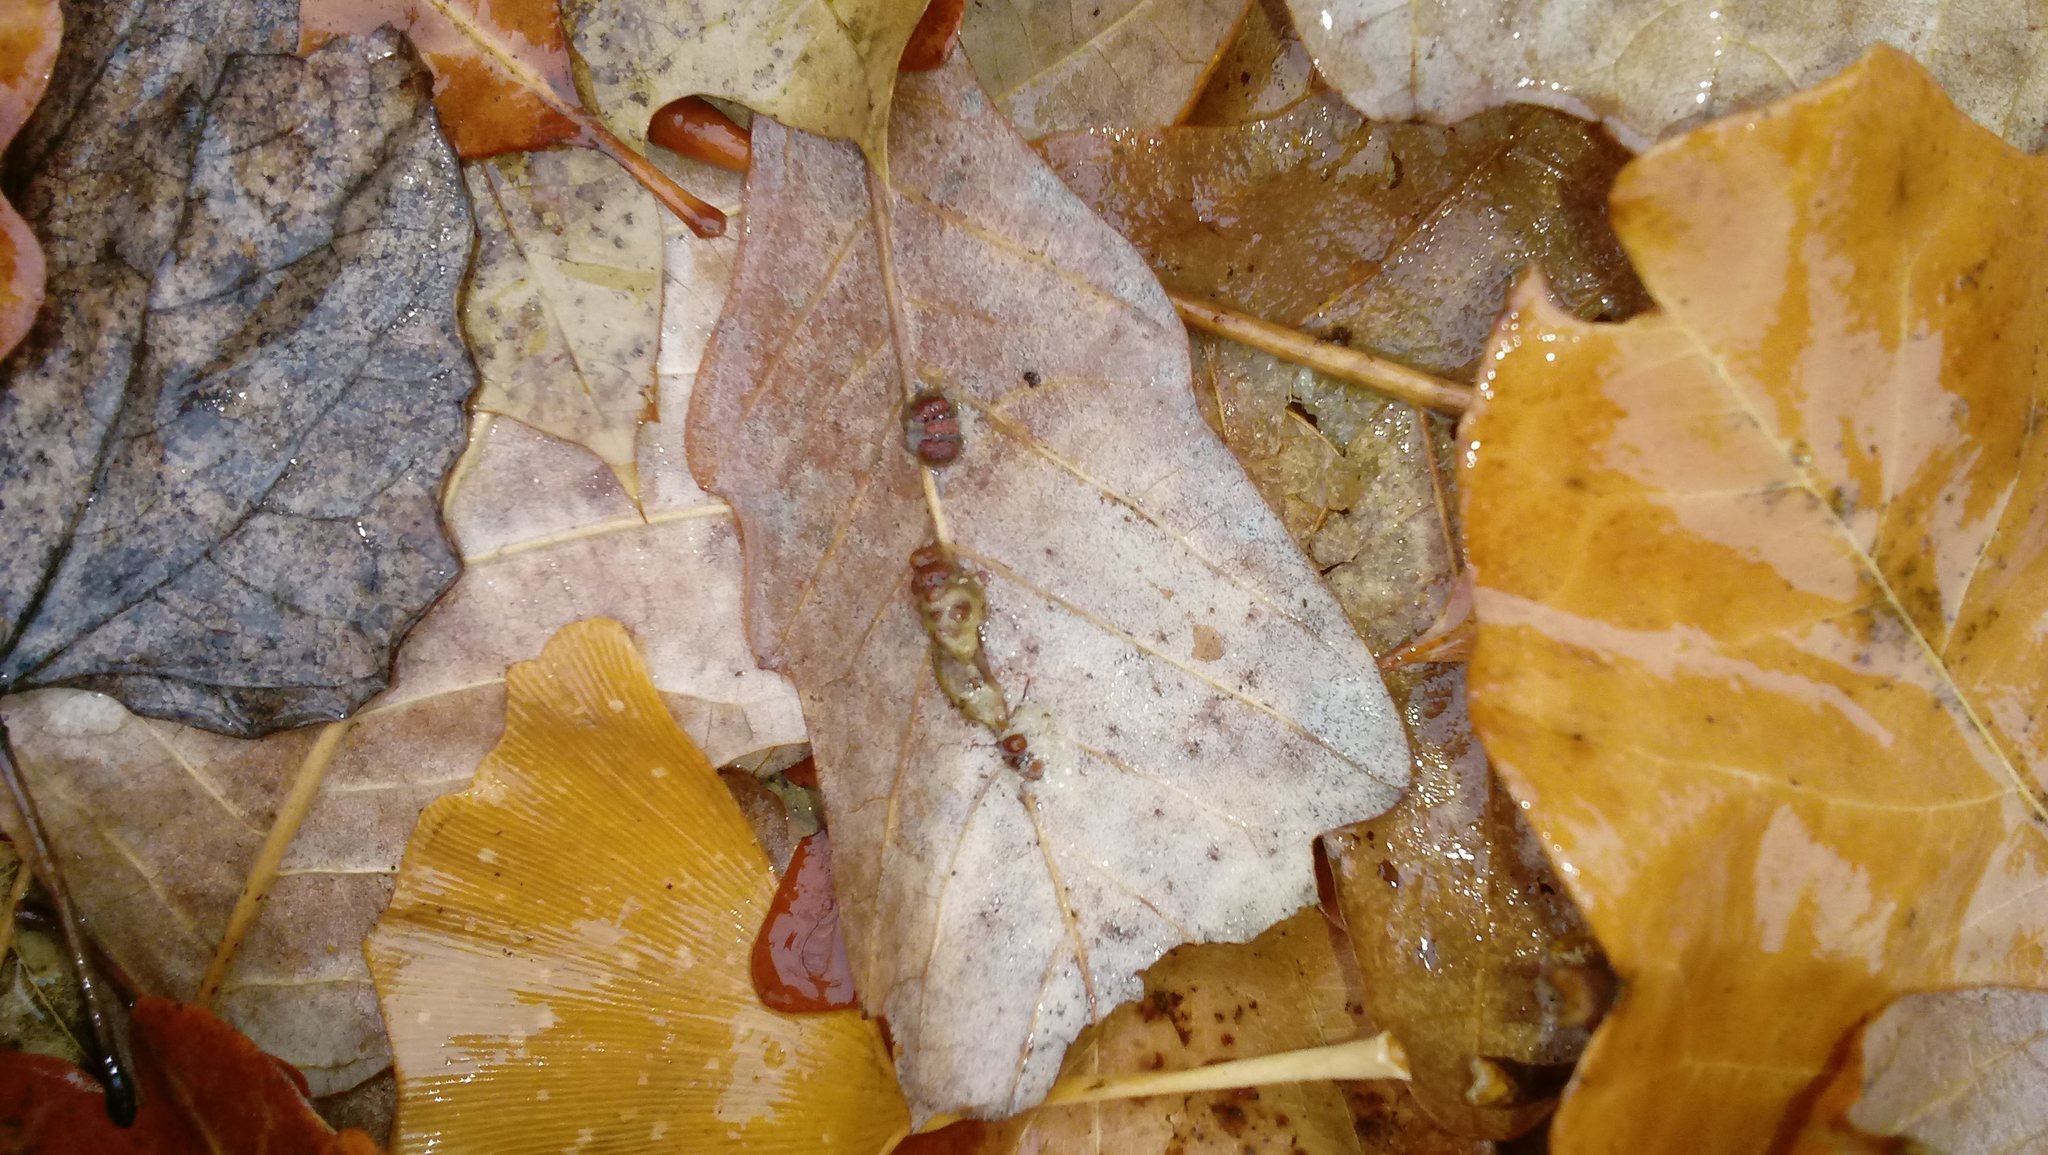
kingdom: Animalia
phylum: Arthropoda
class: Insecta
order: Hymenoptera
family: Cynipidae
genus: Andricus
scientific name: Andricus Druon ignotum
